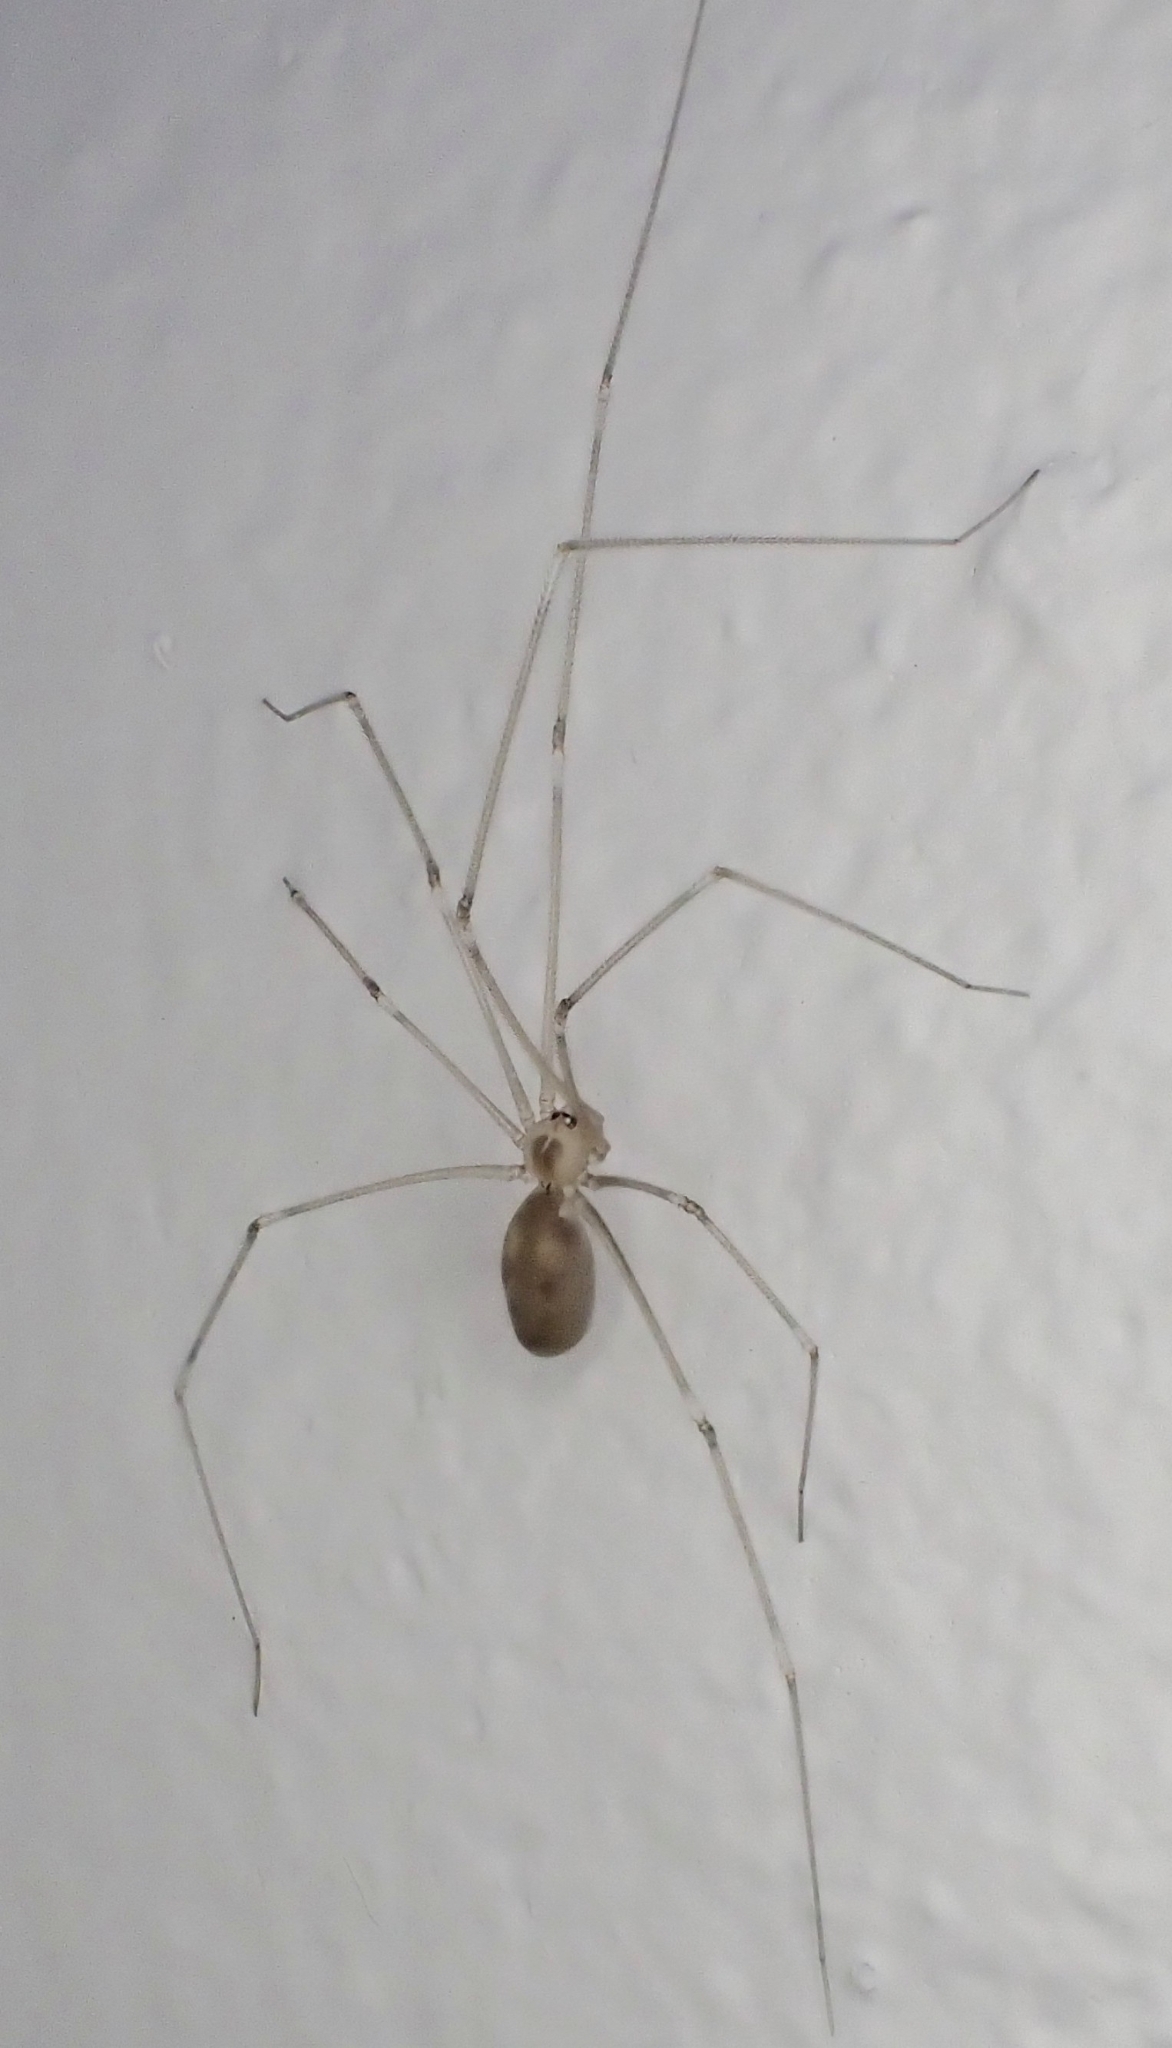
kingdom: Animalia
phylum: Arthropoda
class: Arachnida
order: Araneae
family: Pholcidae
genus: Pholcus
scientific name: Pholcus phalangioides
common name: Longbodied cellar spider
